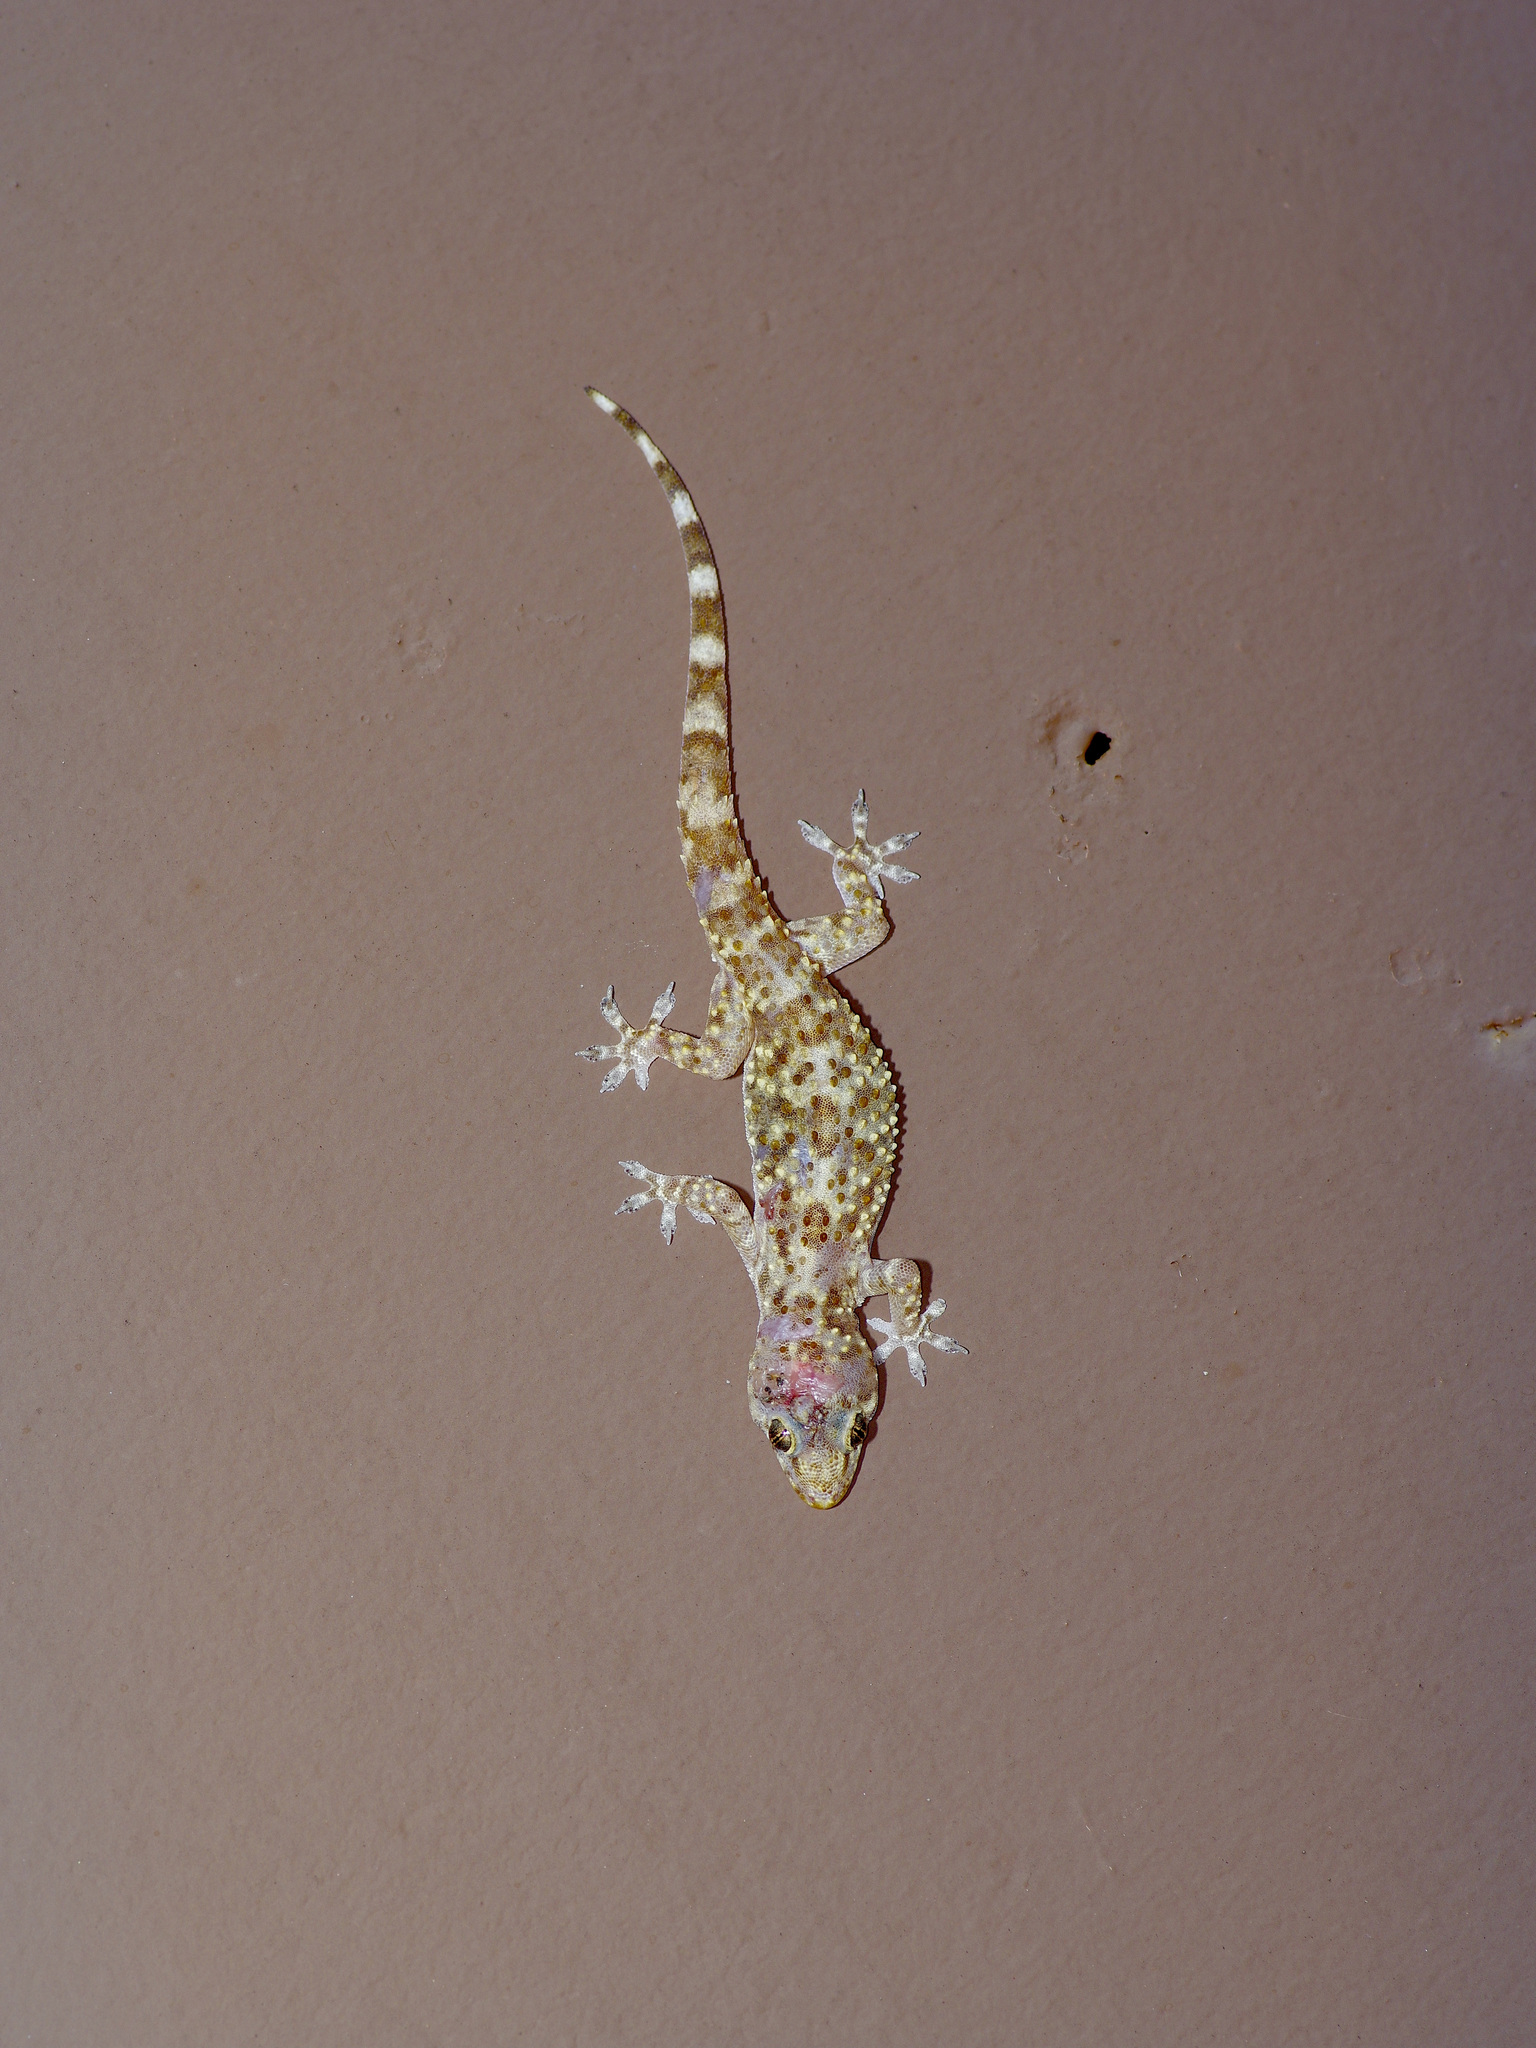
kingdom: Animalia
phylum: Chordata
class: Squamata
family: Gekkonidae
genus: Hemidactylus
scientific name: Hemidactylus turcicus
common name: Turkish gecko
